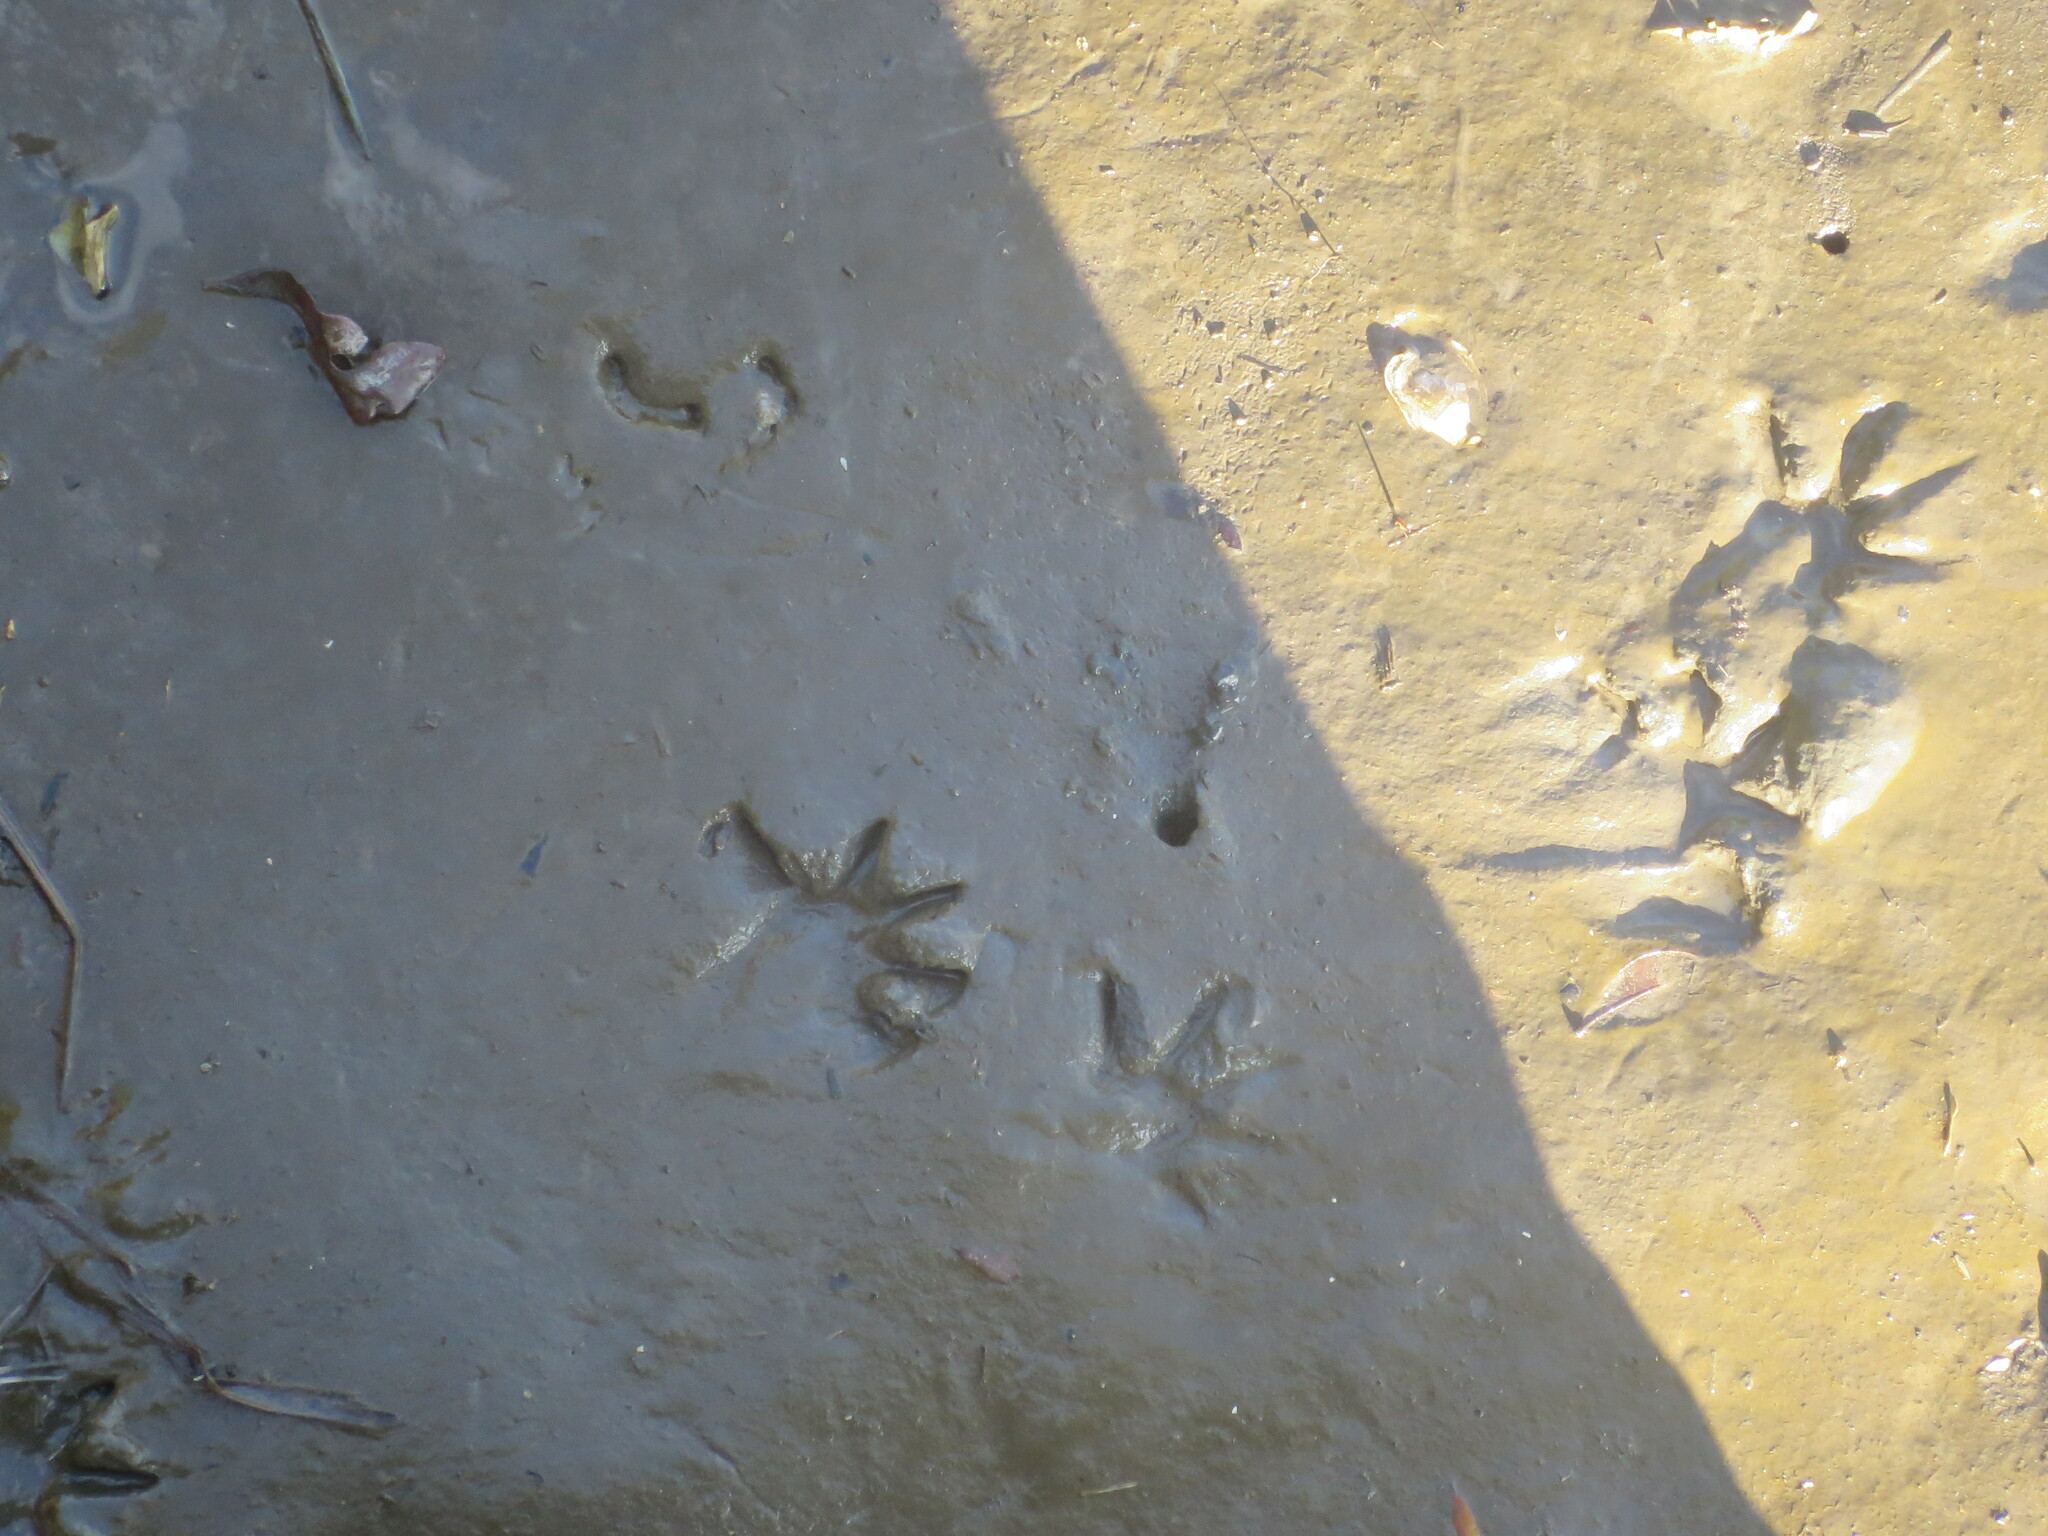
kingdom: Animalia
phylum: Chordata
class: Mammalia
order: Carnivora
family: Procyonidae
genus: Procyon
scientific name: Procyon lotor
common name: Raccoon
